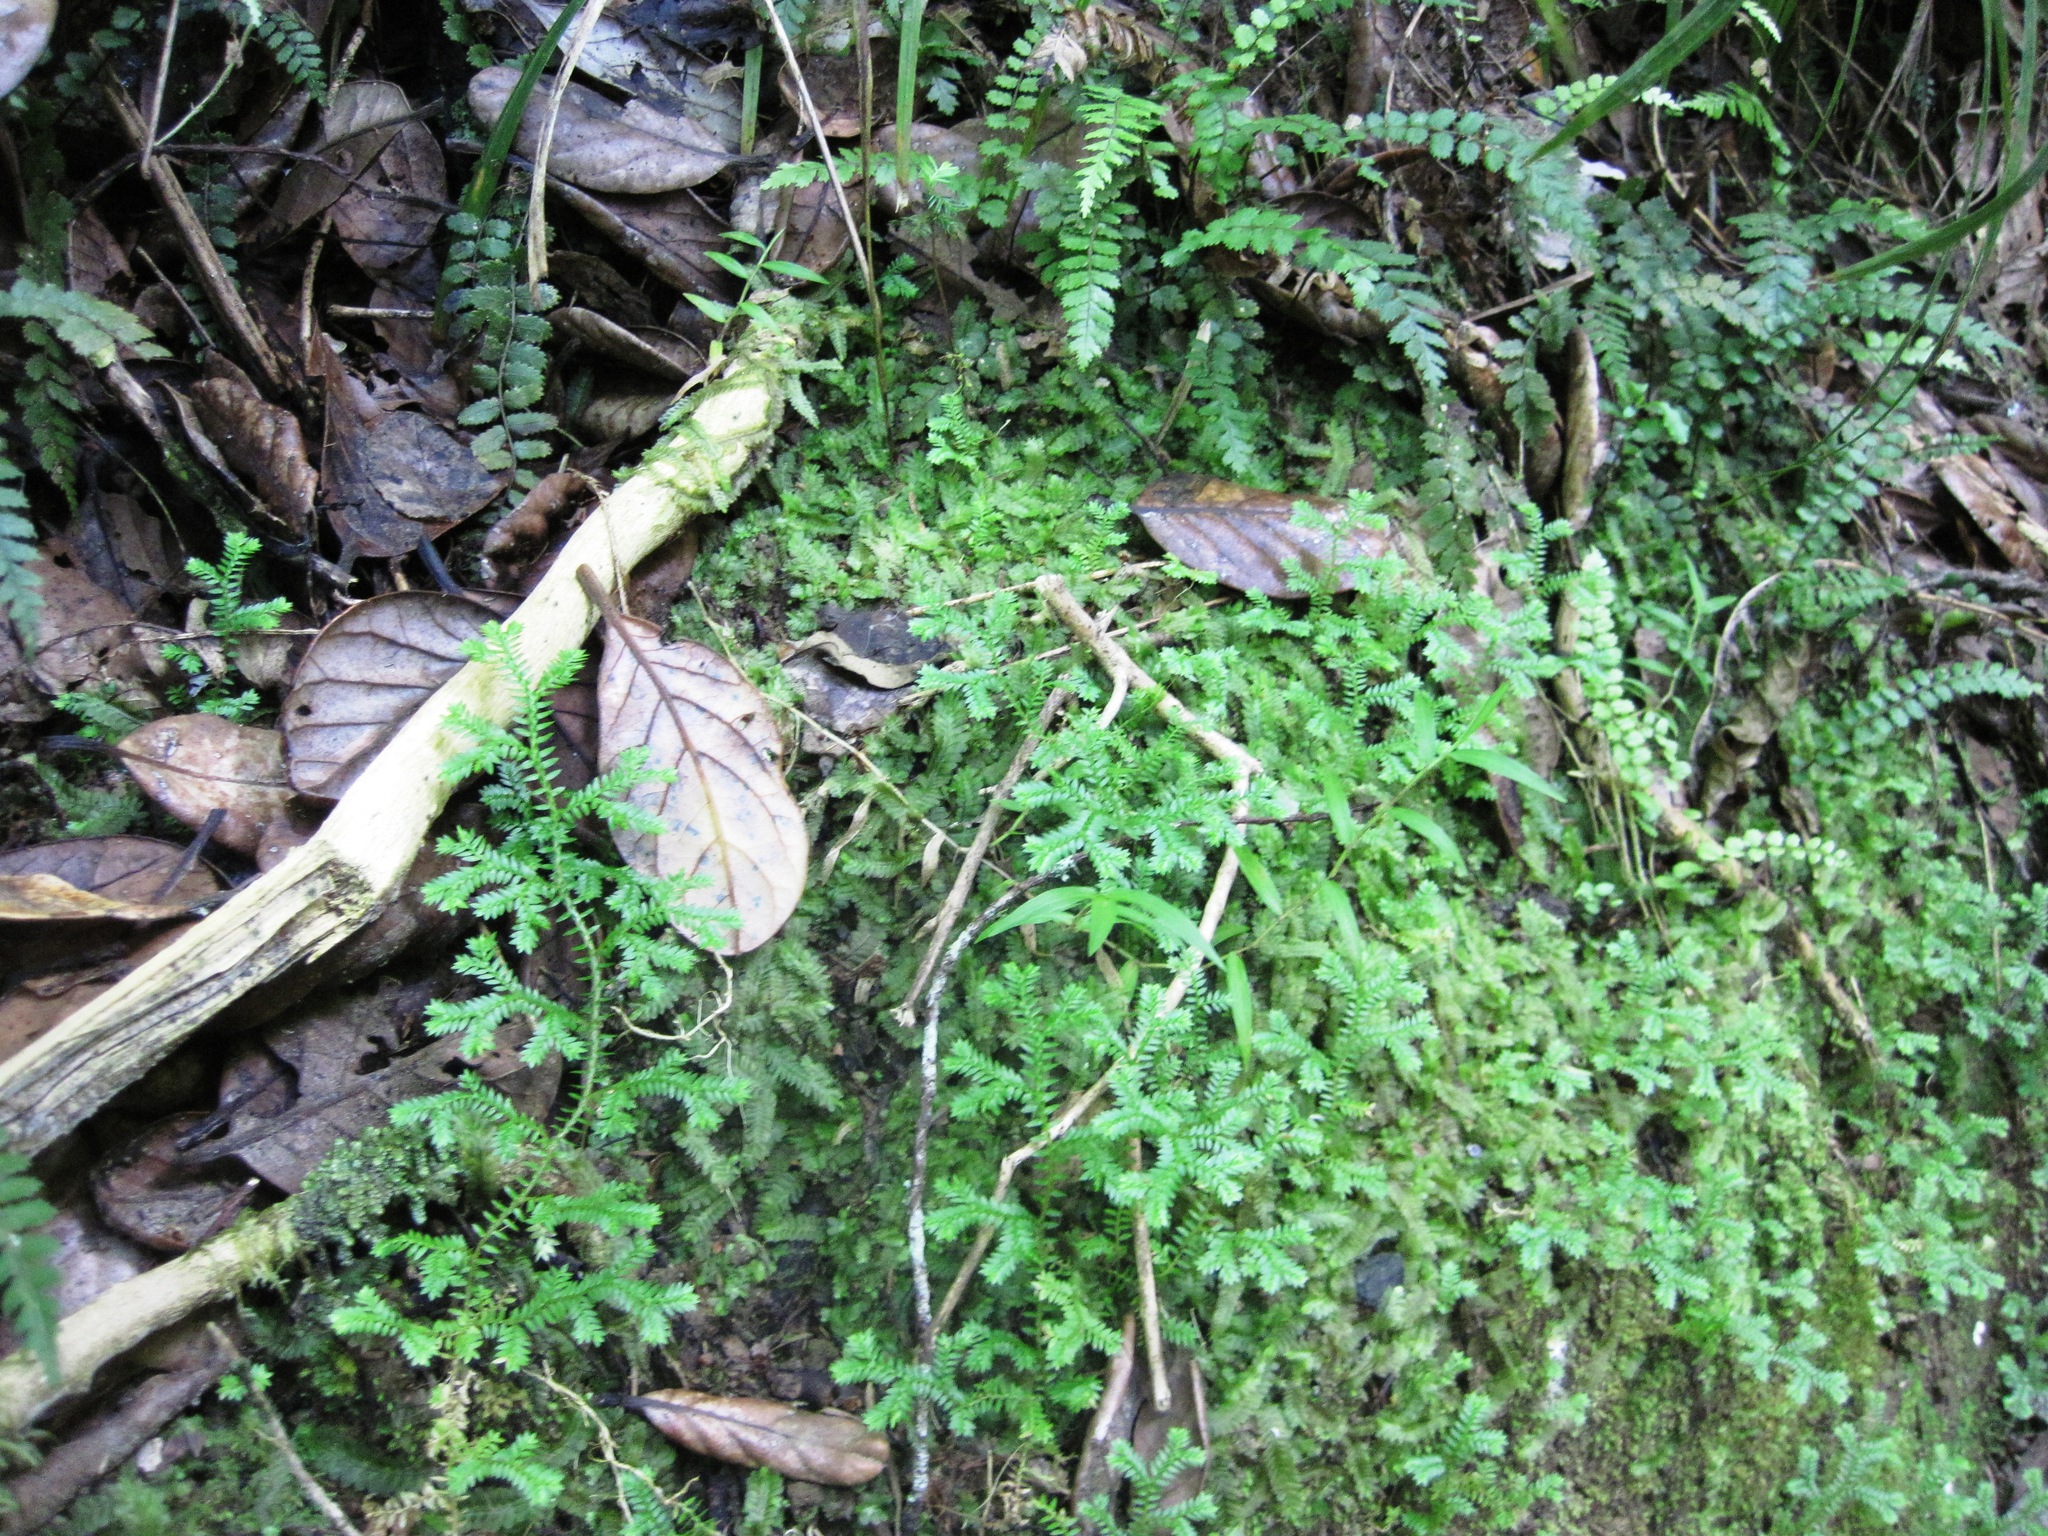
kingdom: Plantae
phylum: Tracheophyta
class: Lycopodiopsida
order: Selaginellales
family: Selaginellaceae
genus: Selaginella
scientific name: Selaginella kraussiana
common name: Krauss' spikemoss
